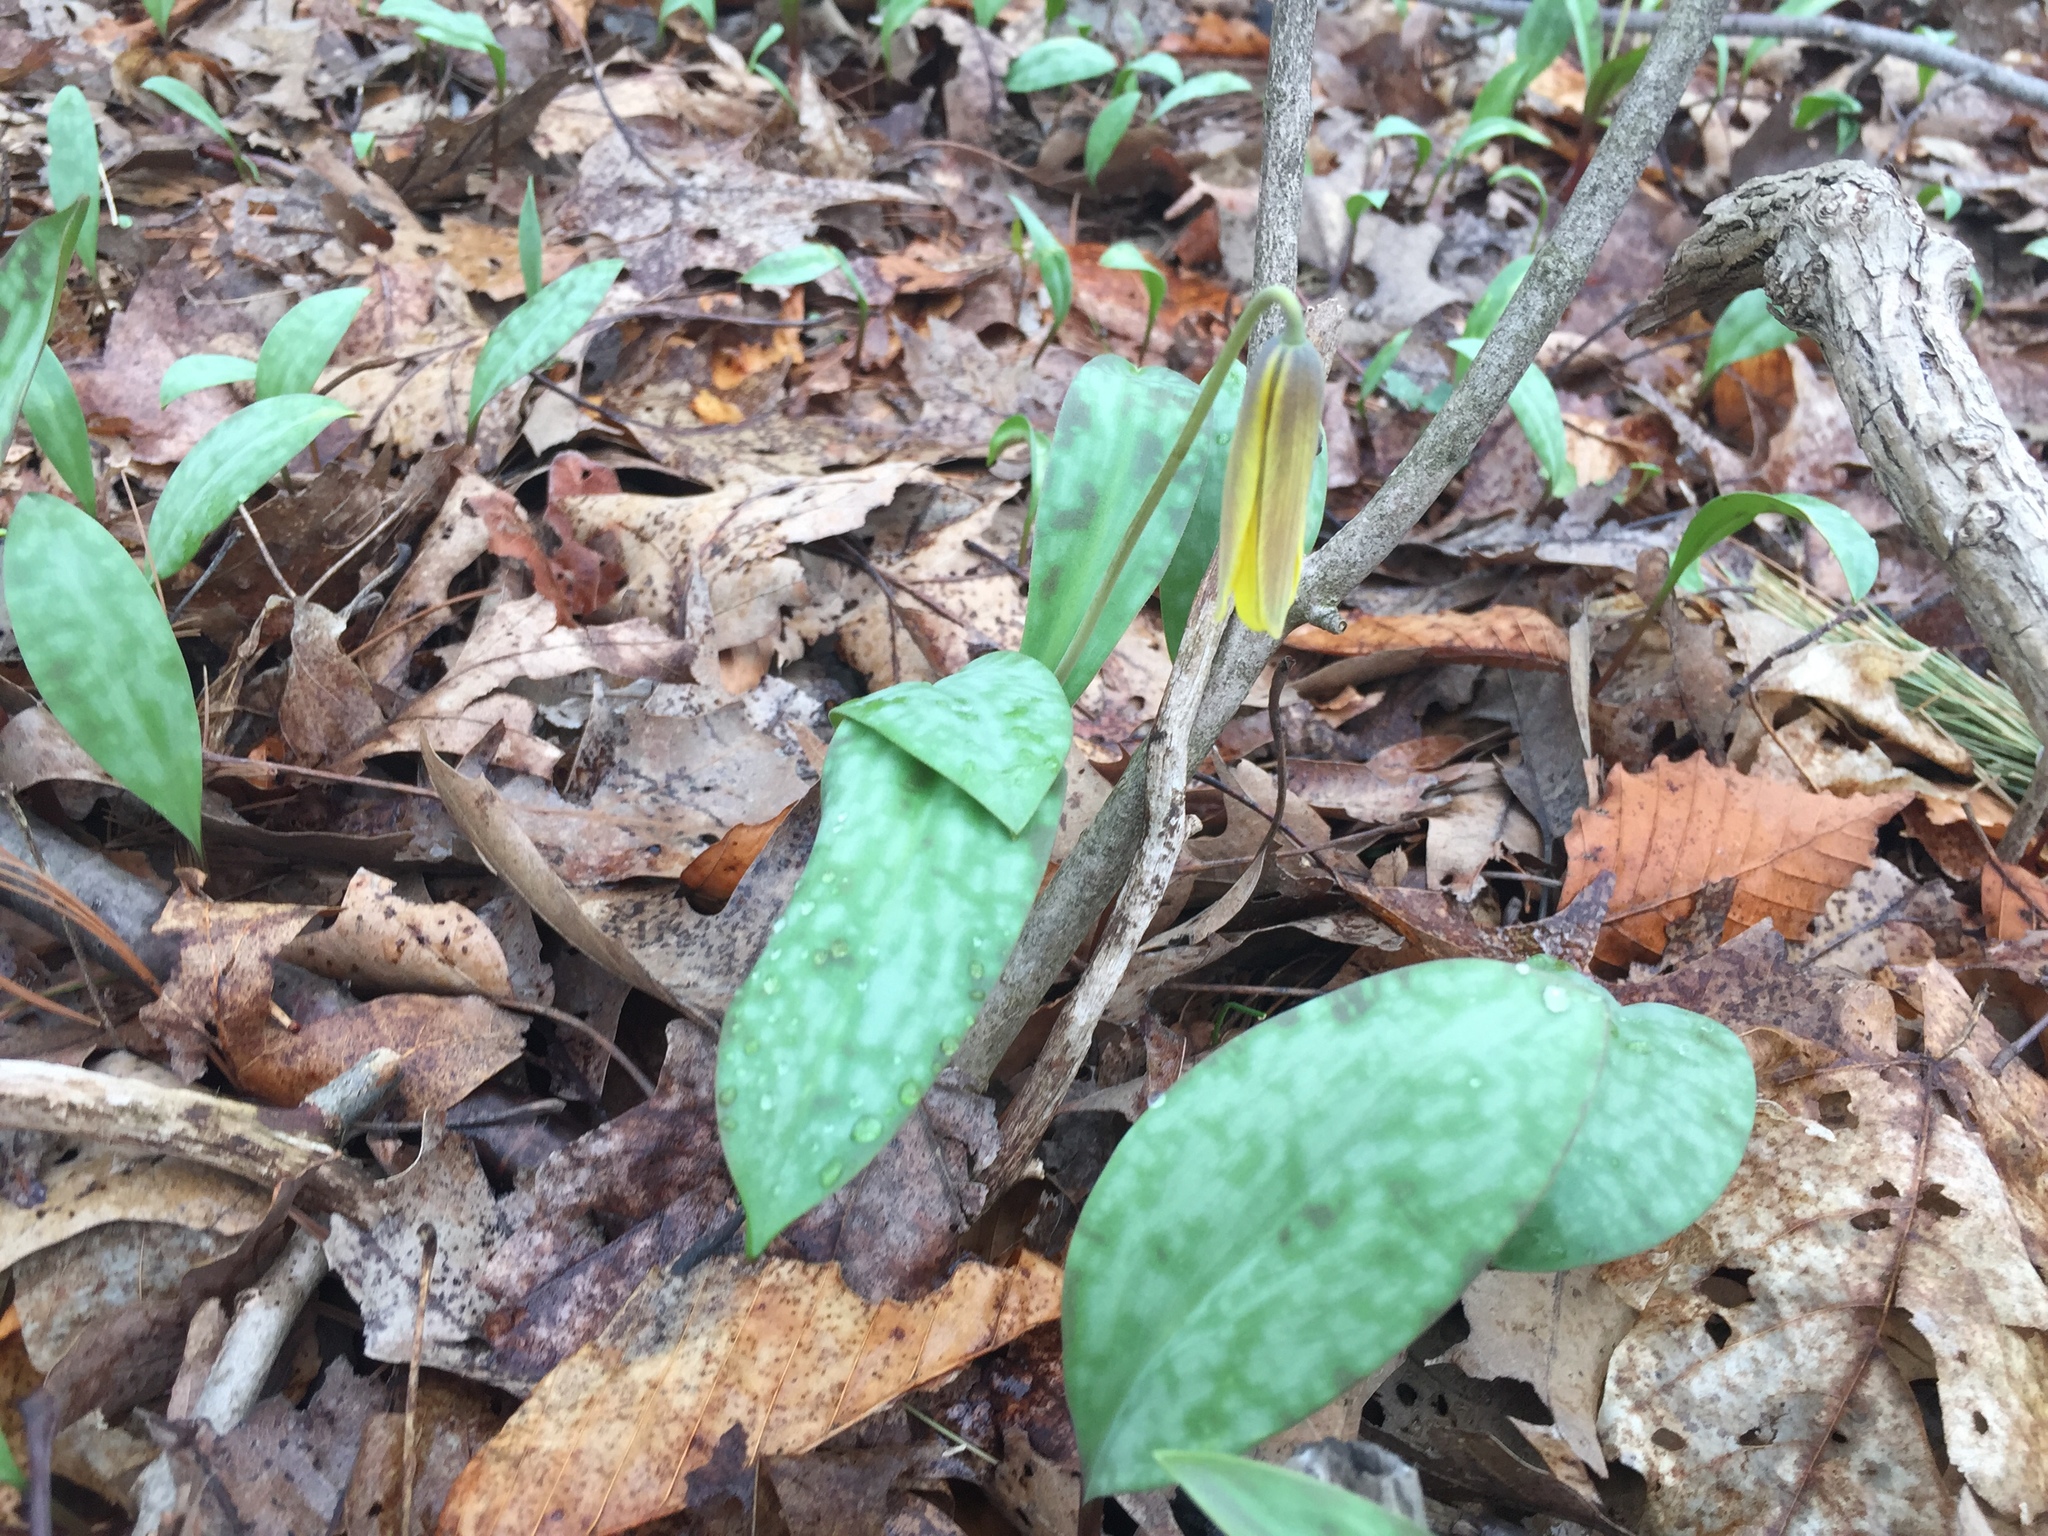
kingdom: Plantae
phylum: Tracheophyta
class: Liliopsida
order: Liliales
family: Liliaceae
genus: Erythronium
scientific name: Erythronium americanum
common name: Yellow adder's-tongue
